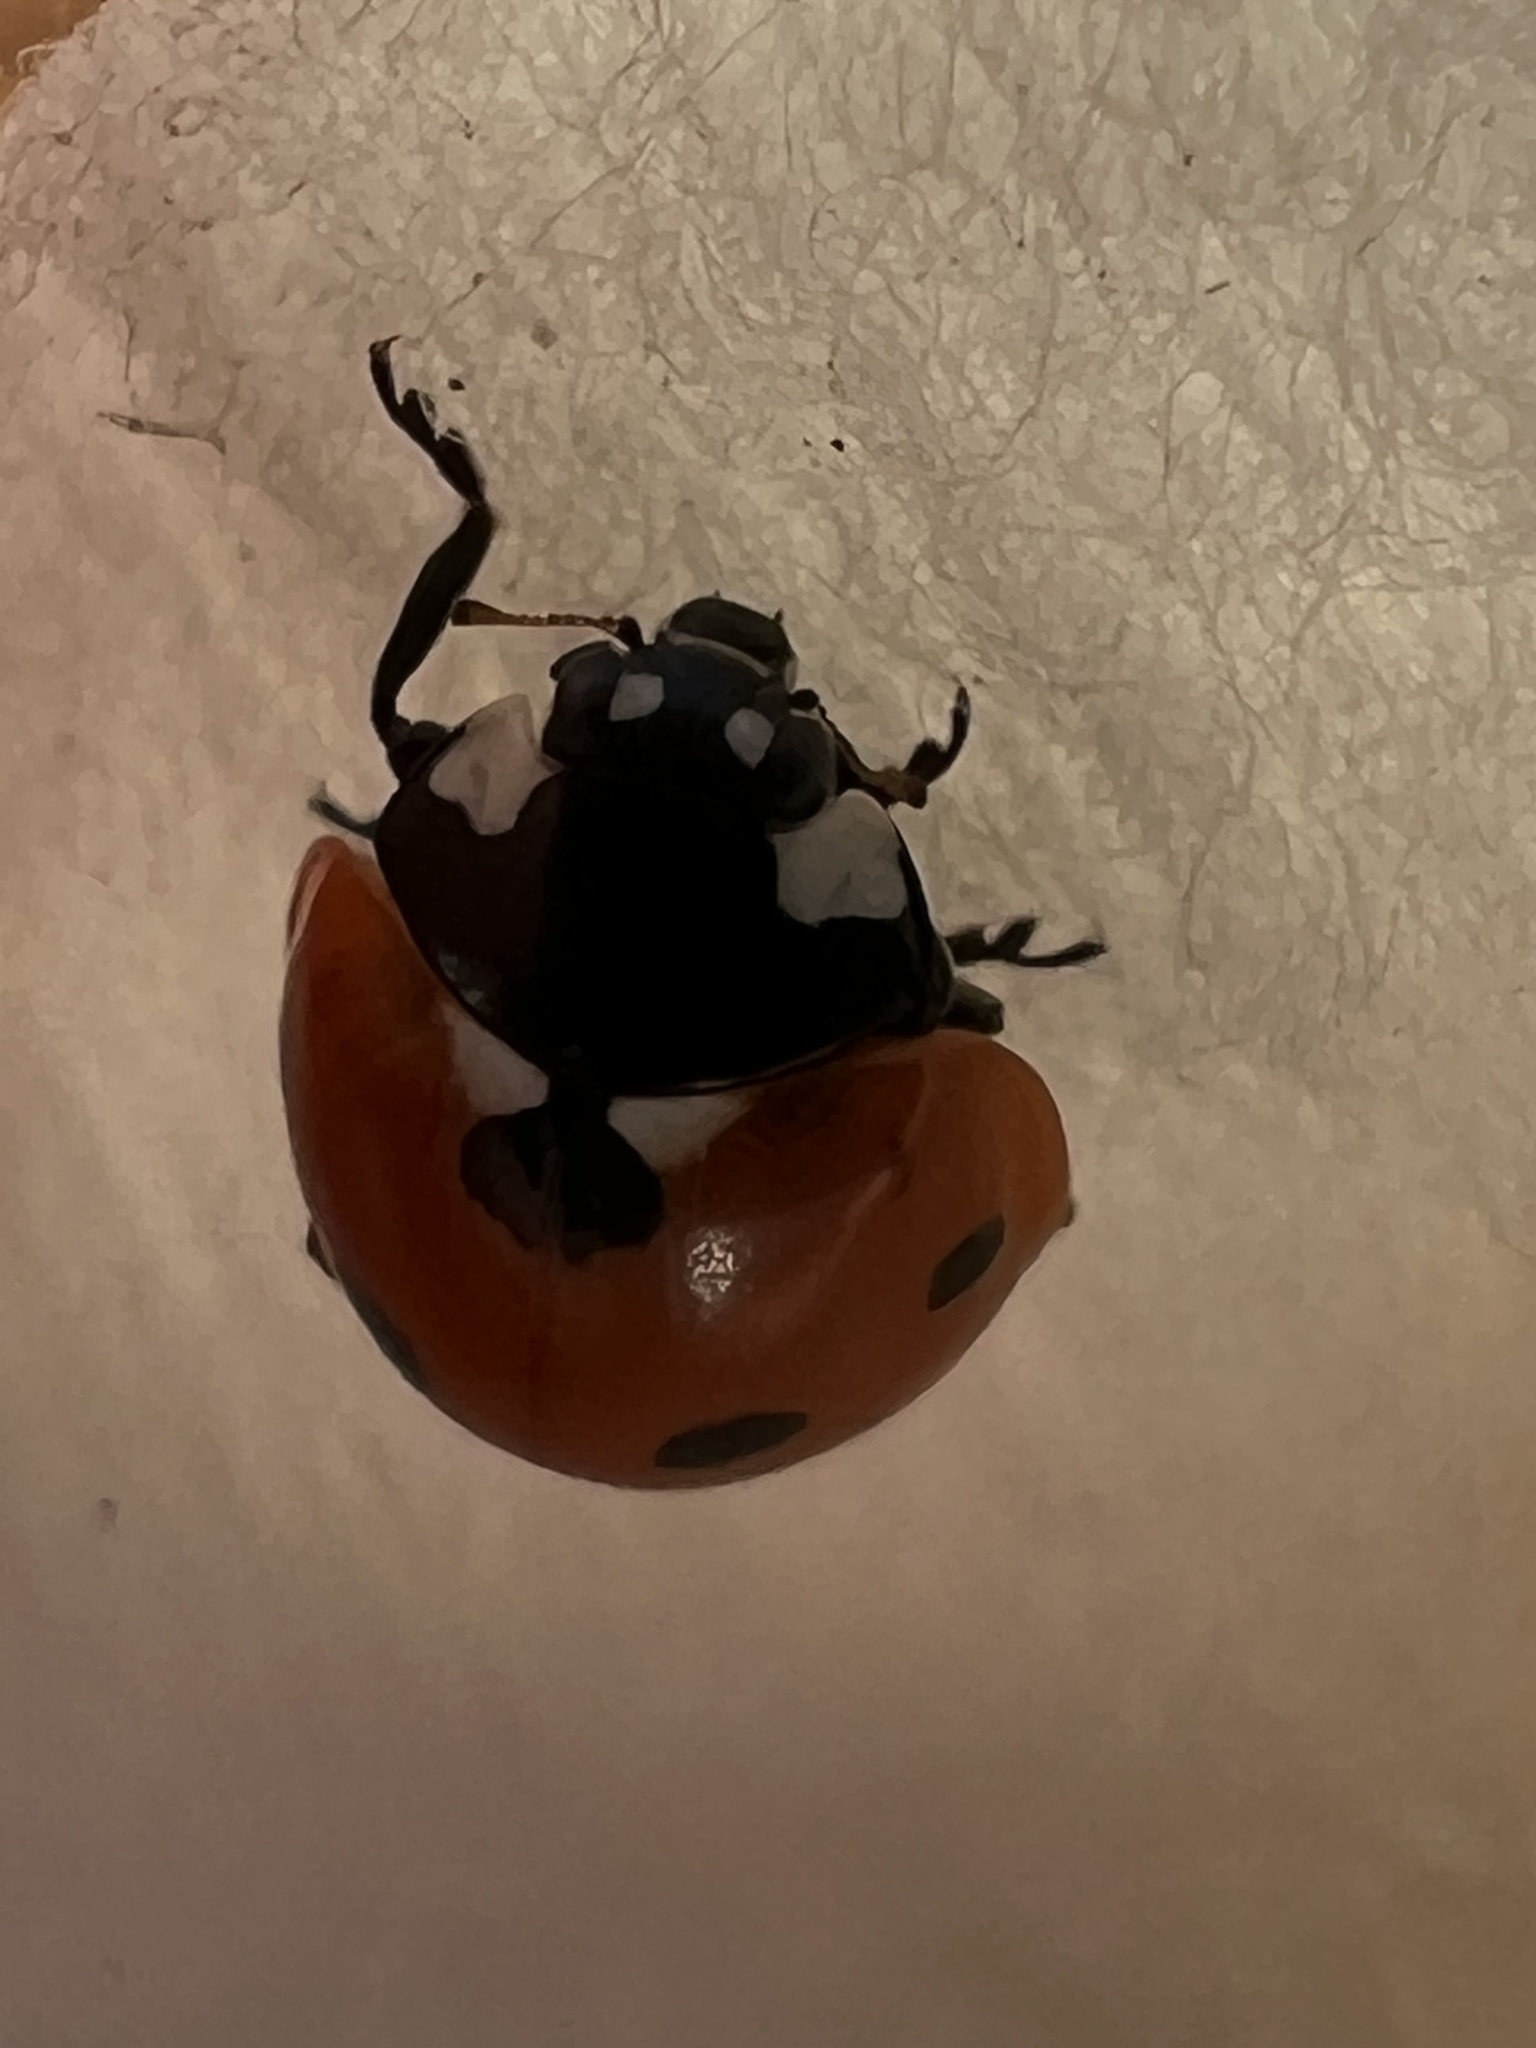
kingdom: Animalia
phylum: Arthropoda
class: Insecta
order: Coleoptera
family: Coccinellidae
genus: Coccinella
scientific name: Coccinella septempunctata
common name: Sevenspotted lady beetle
